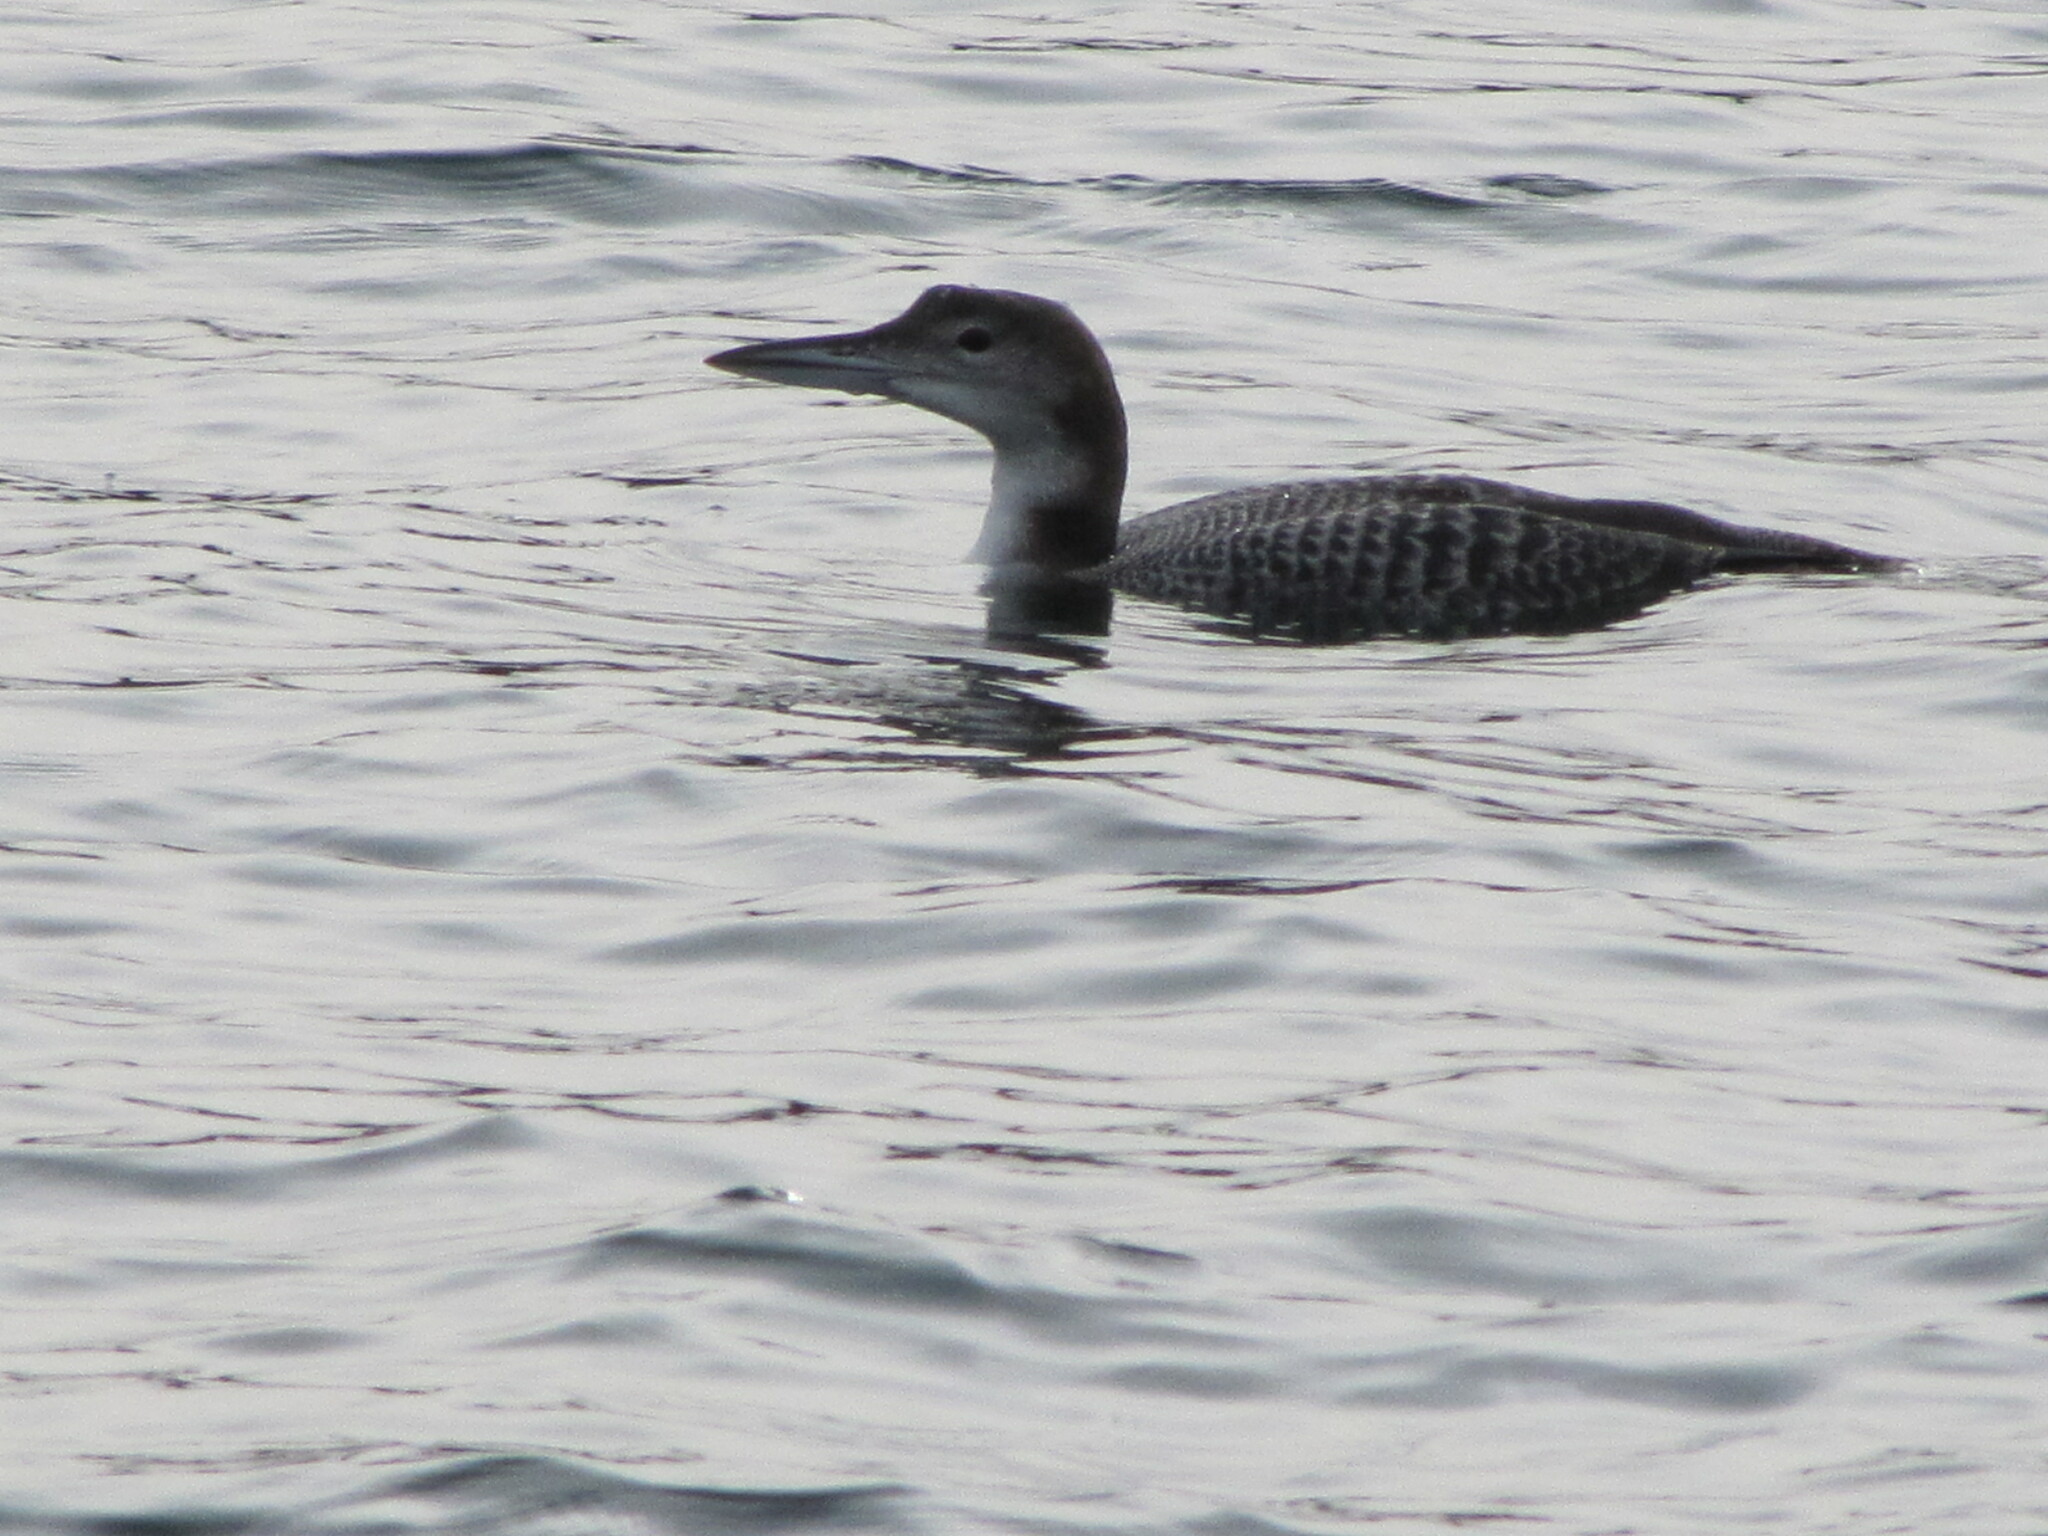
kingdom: Animalia
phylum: Chordata
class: Aves
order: Gaviiformes
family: Gaviidae
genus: Gavia
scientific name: Gavia immer
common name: Common loon
